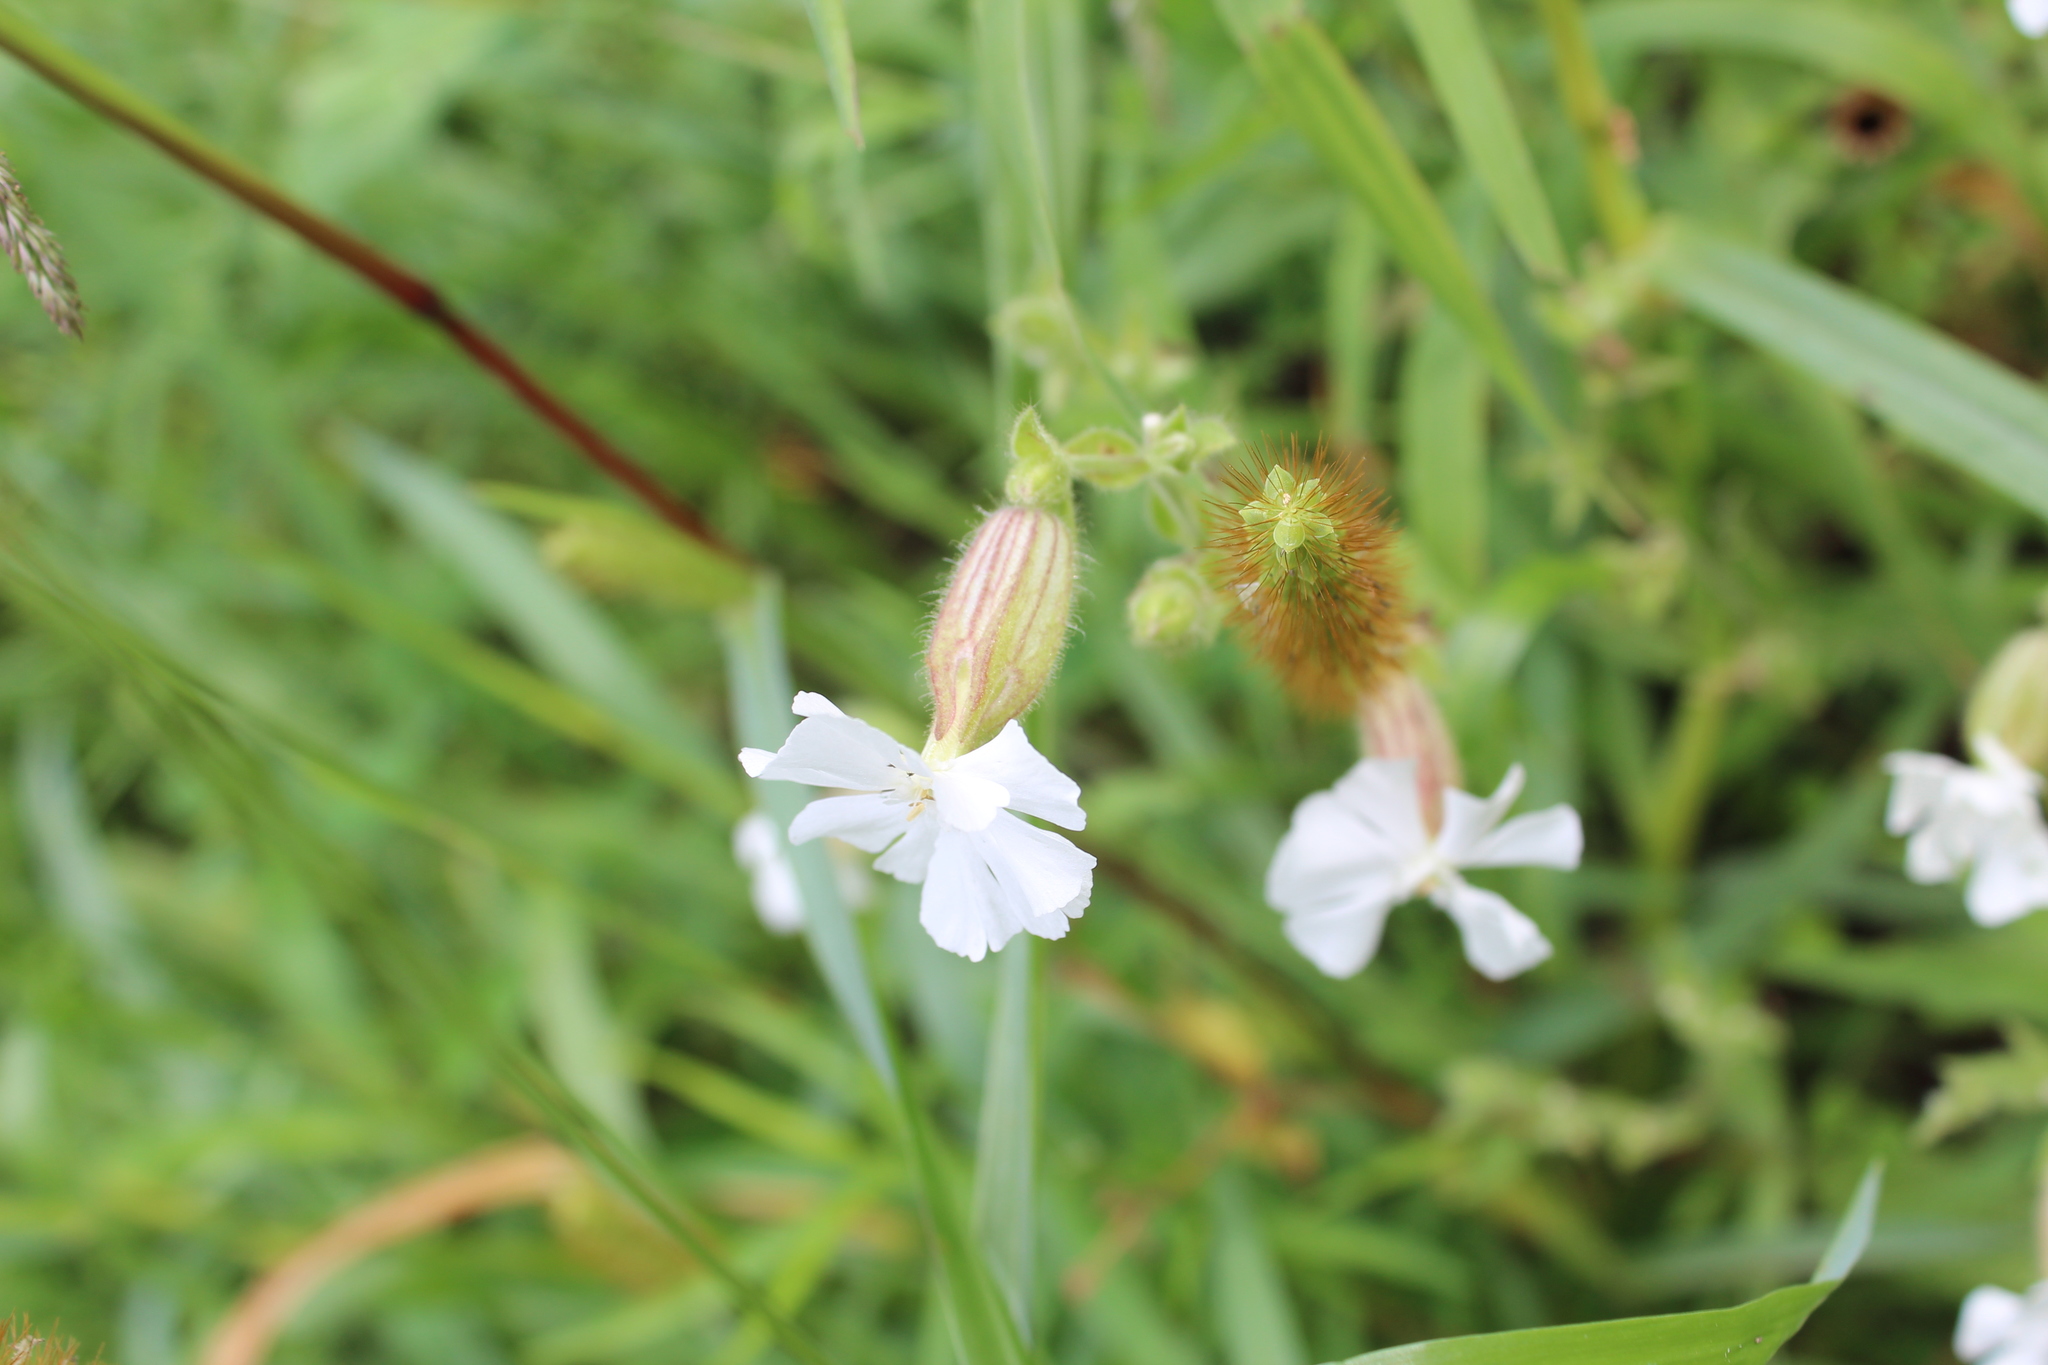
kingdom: Plantae
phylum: Tracheophyta
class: Magnoliopsida
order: Caryophyllales
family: Caryophyllaceae
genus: Silene
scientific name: Silene latifolia
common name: White campion
